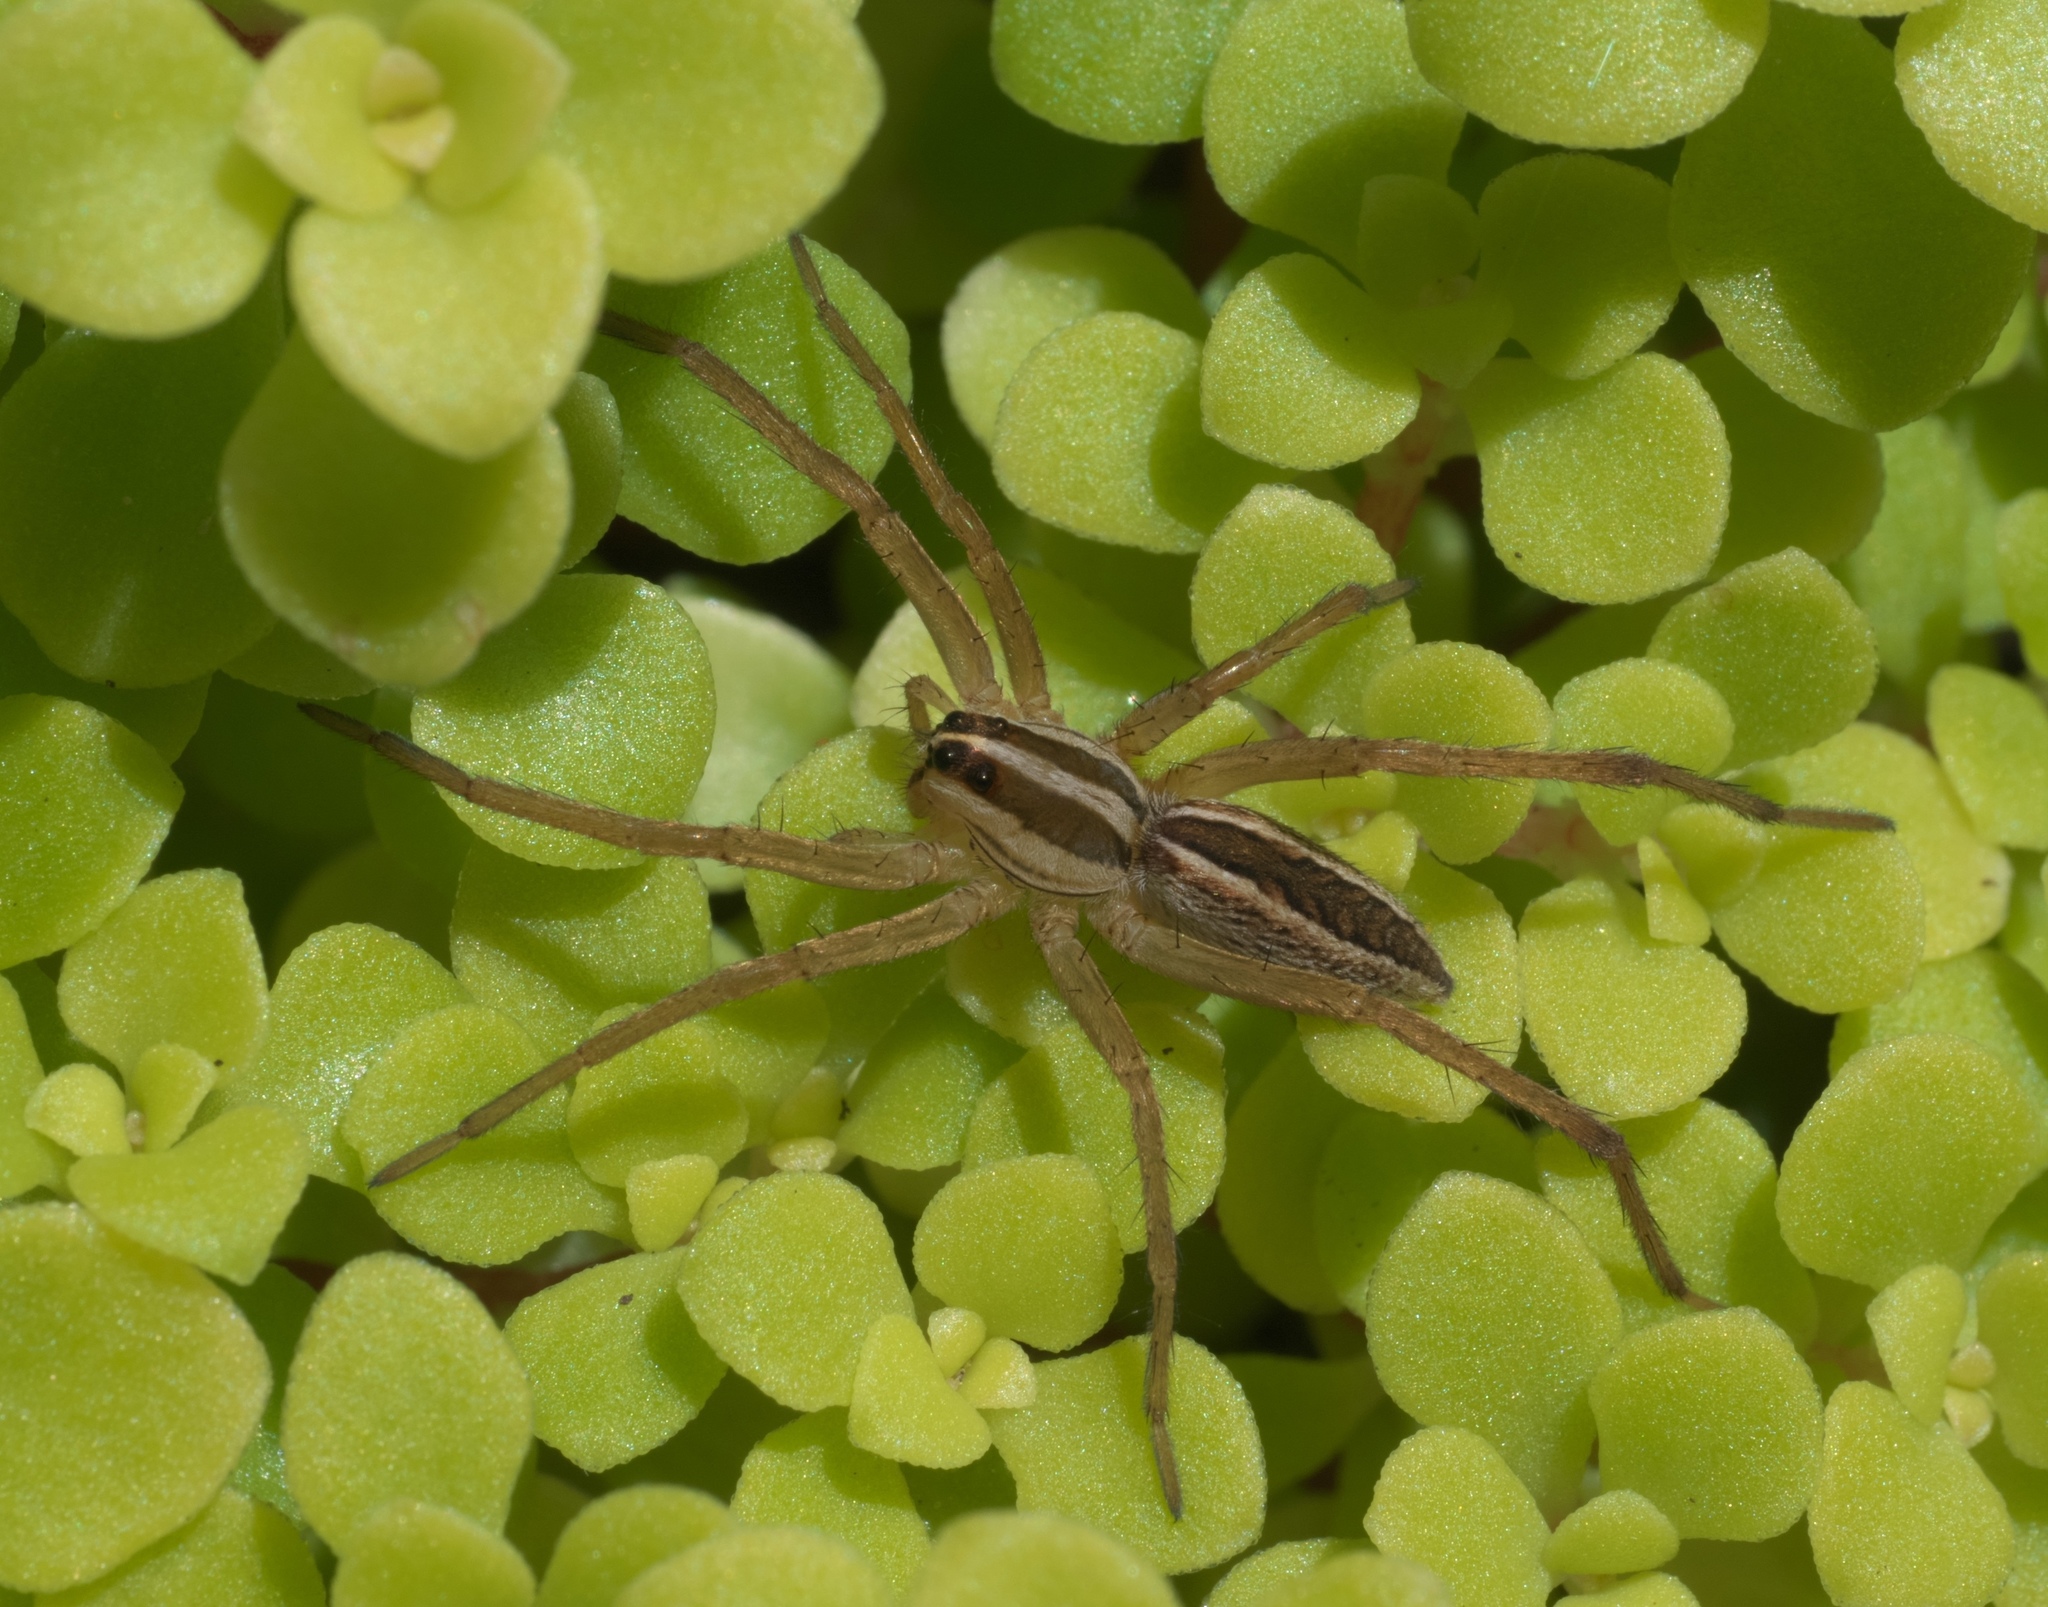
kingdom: Animalia
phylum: Arthropoda
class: Arachnida
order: Araneae
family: Lycosidae
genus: Rabidosa
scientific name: Rabidosa rabida
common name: Rabid wolf spider
